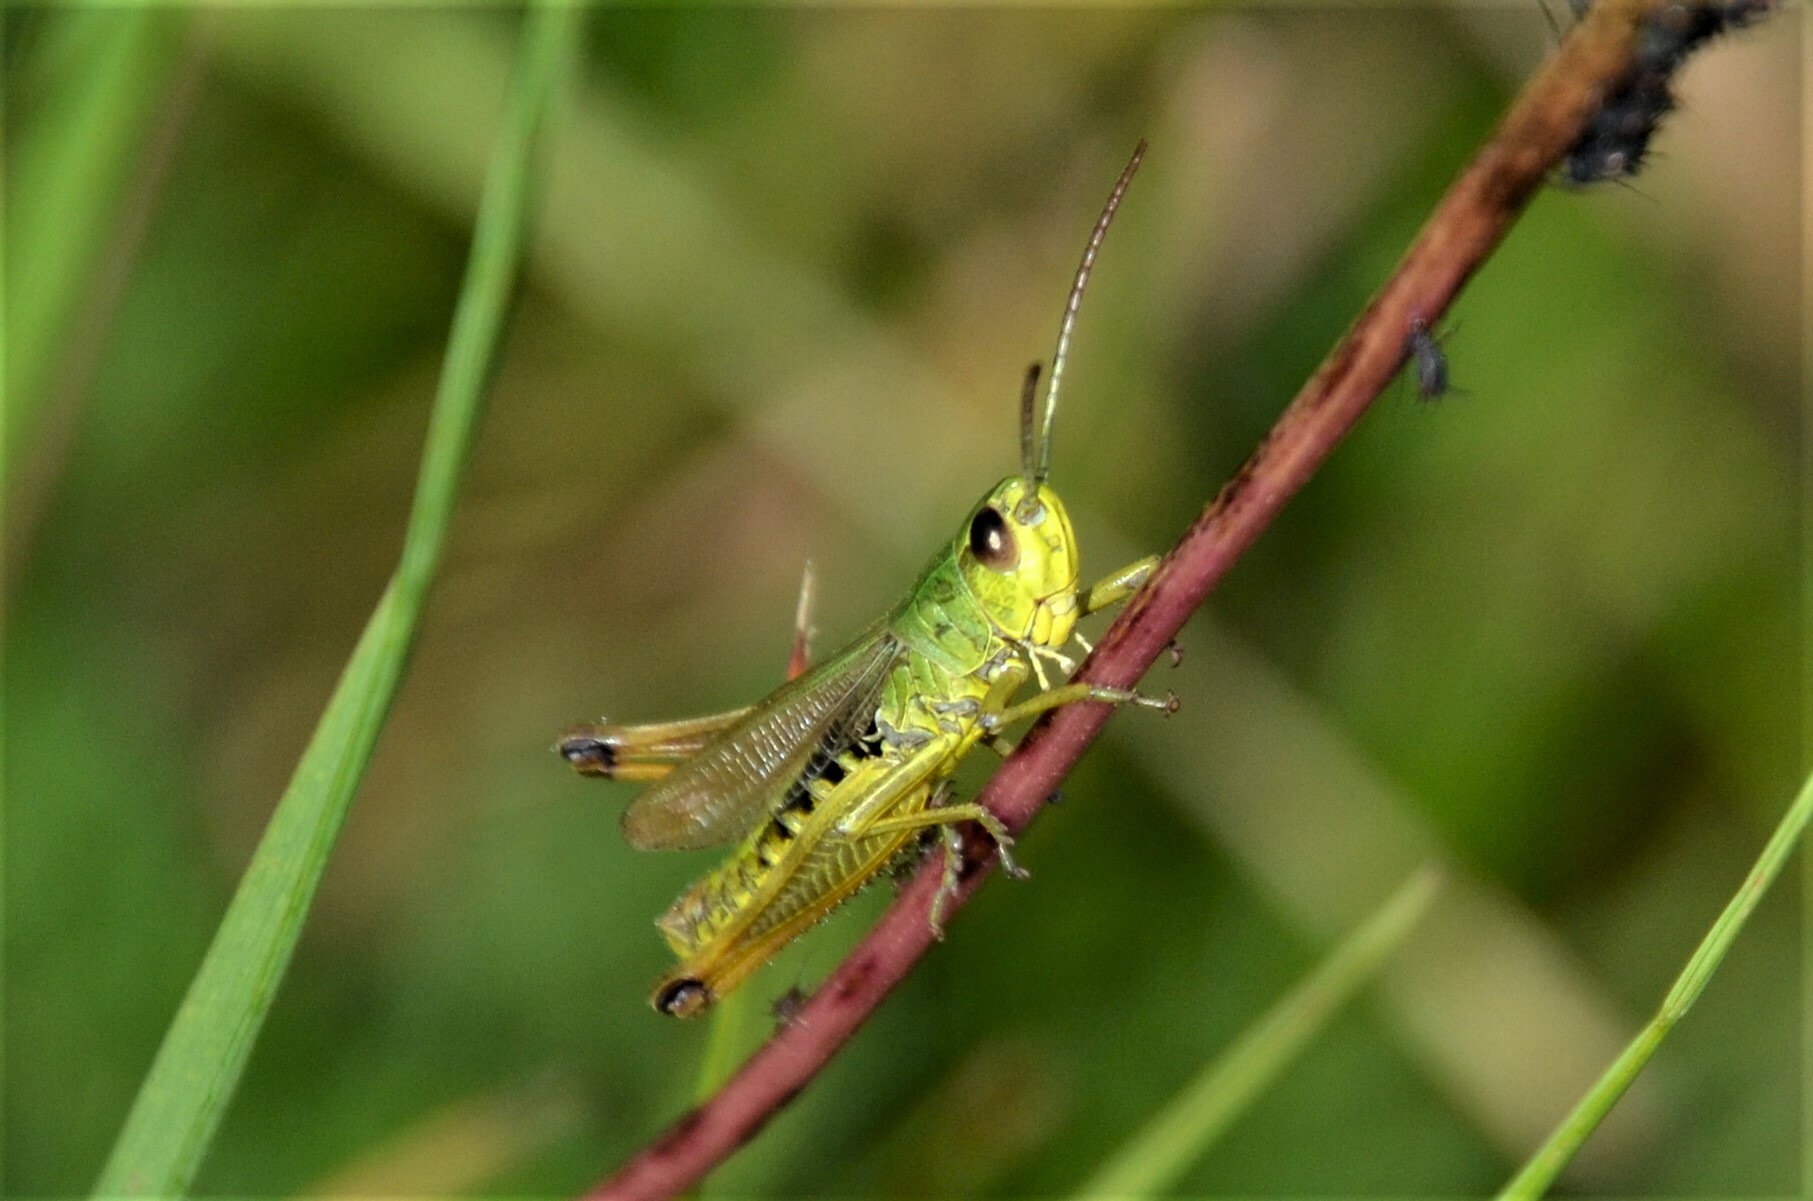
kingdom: Animalia
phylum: Arthropoda
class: Insecta
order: Orthoptera
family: Acrididae
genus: Pseudochorthippus
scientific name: Pseudochorthippus parallelus
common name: Meadow grasshopper
